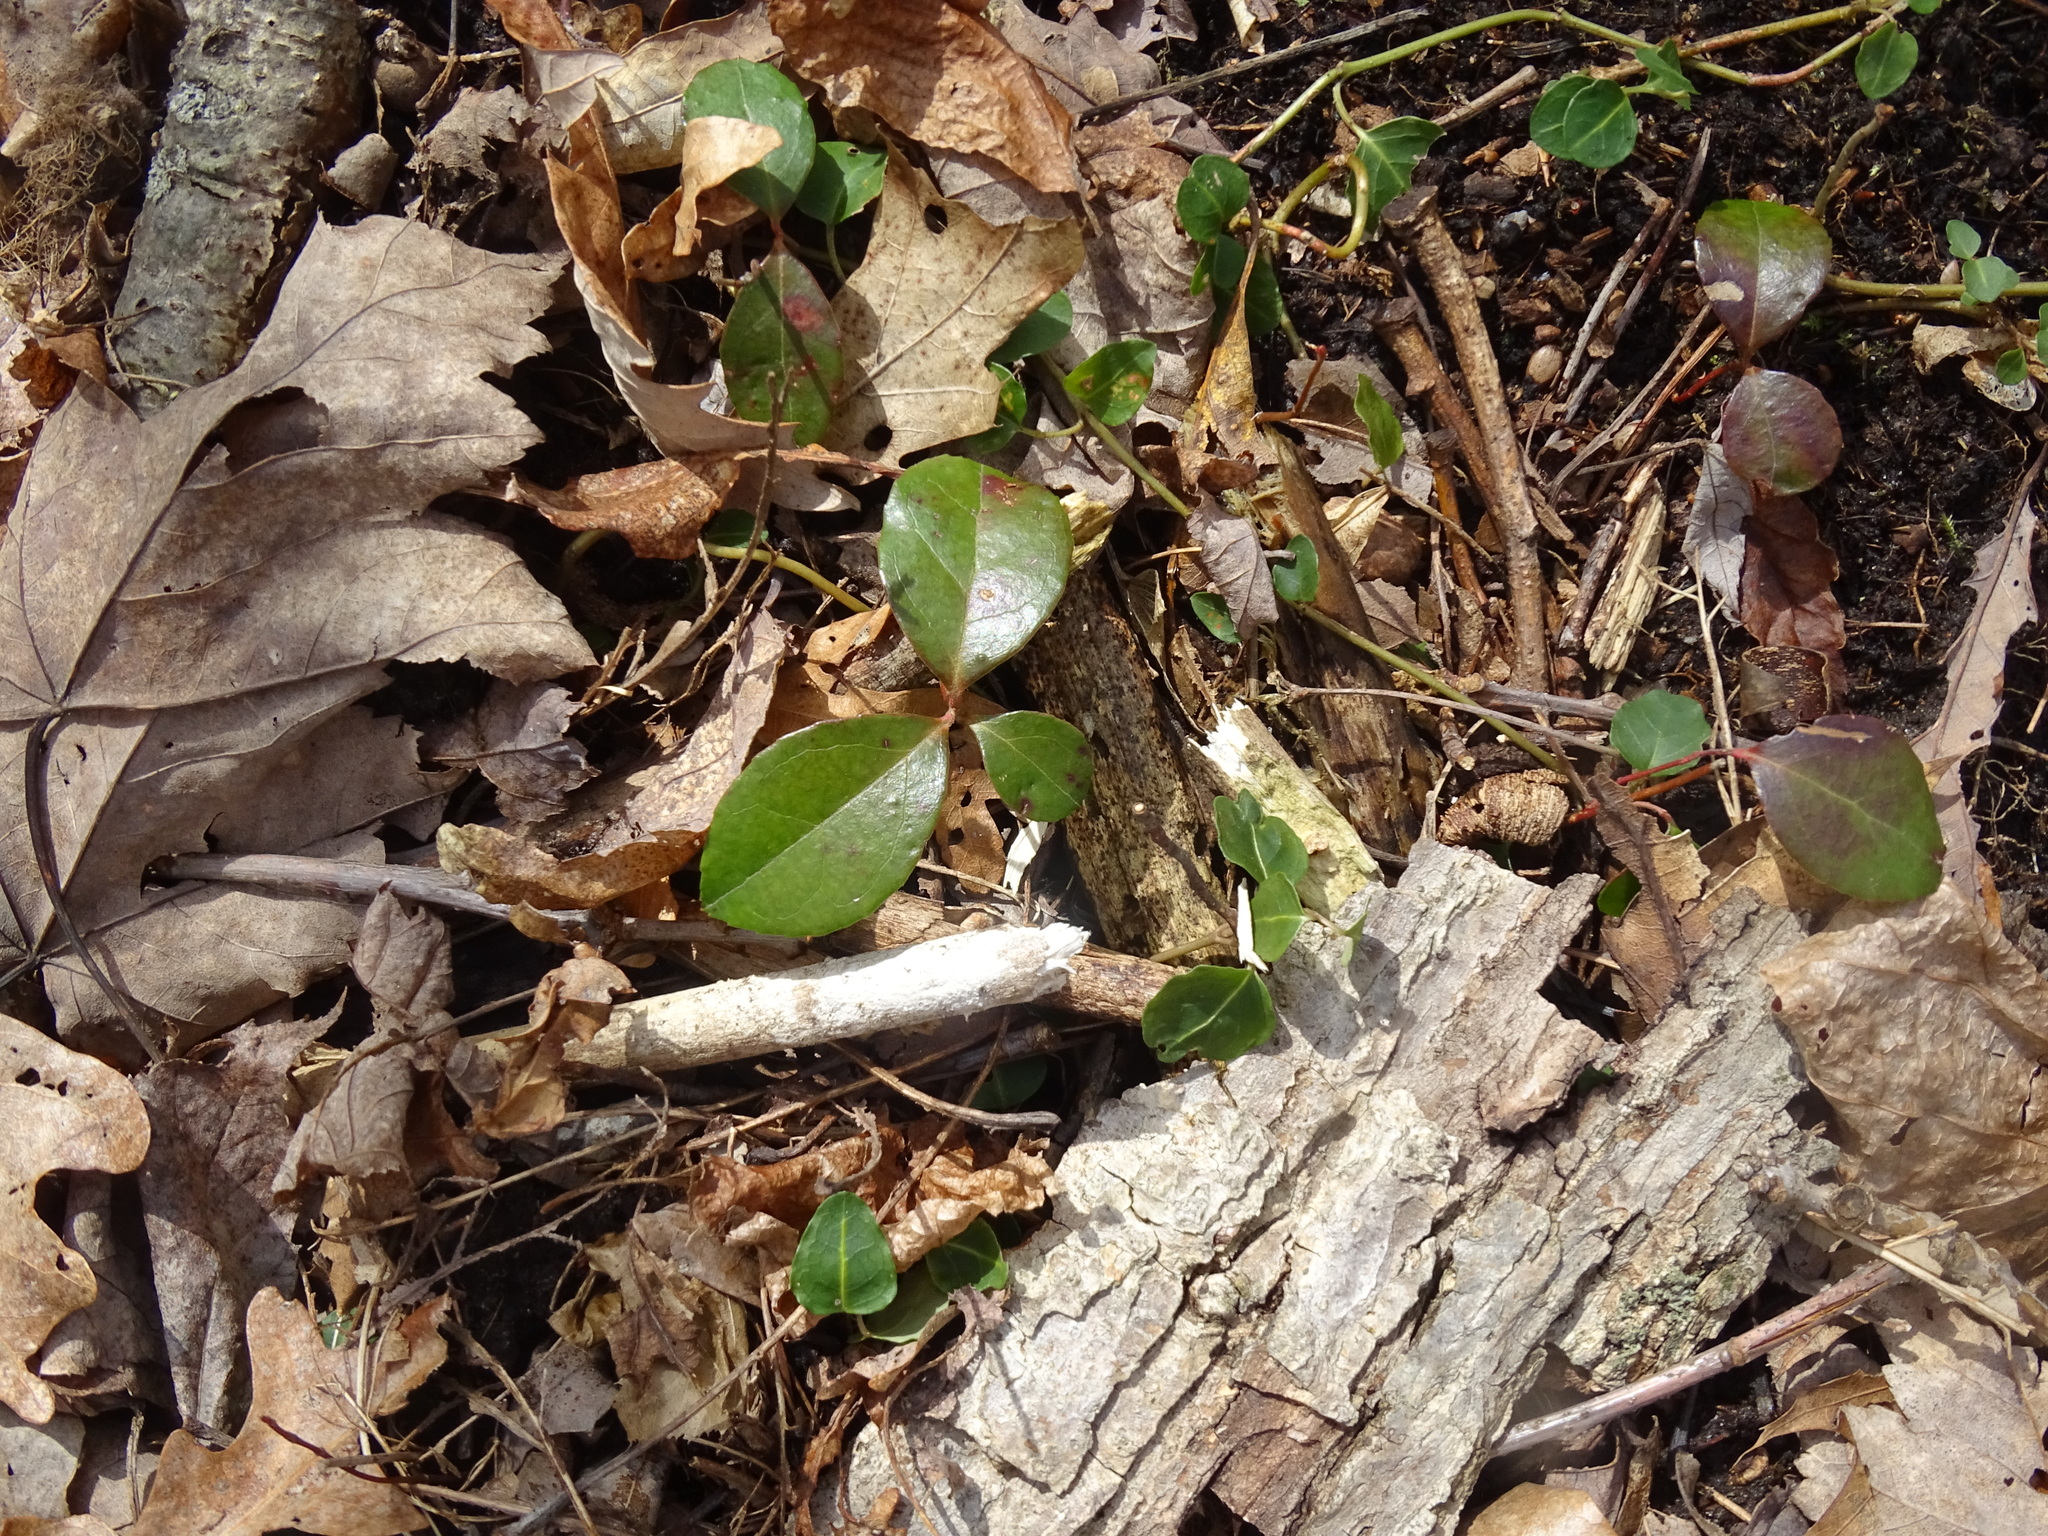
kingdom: Plantae
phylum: Tracheophyta
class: Magnoliopsida
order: Ericales
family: Ericaceae
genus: Gaultheria
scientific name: Gaultheria procumbens
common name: Checkerberry
